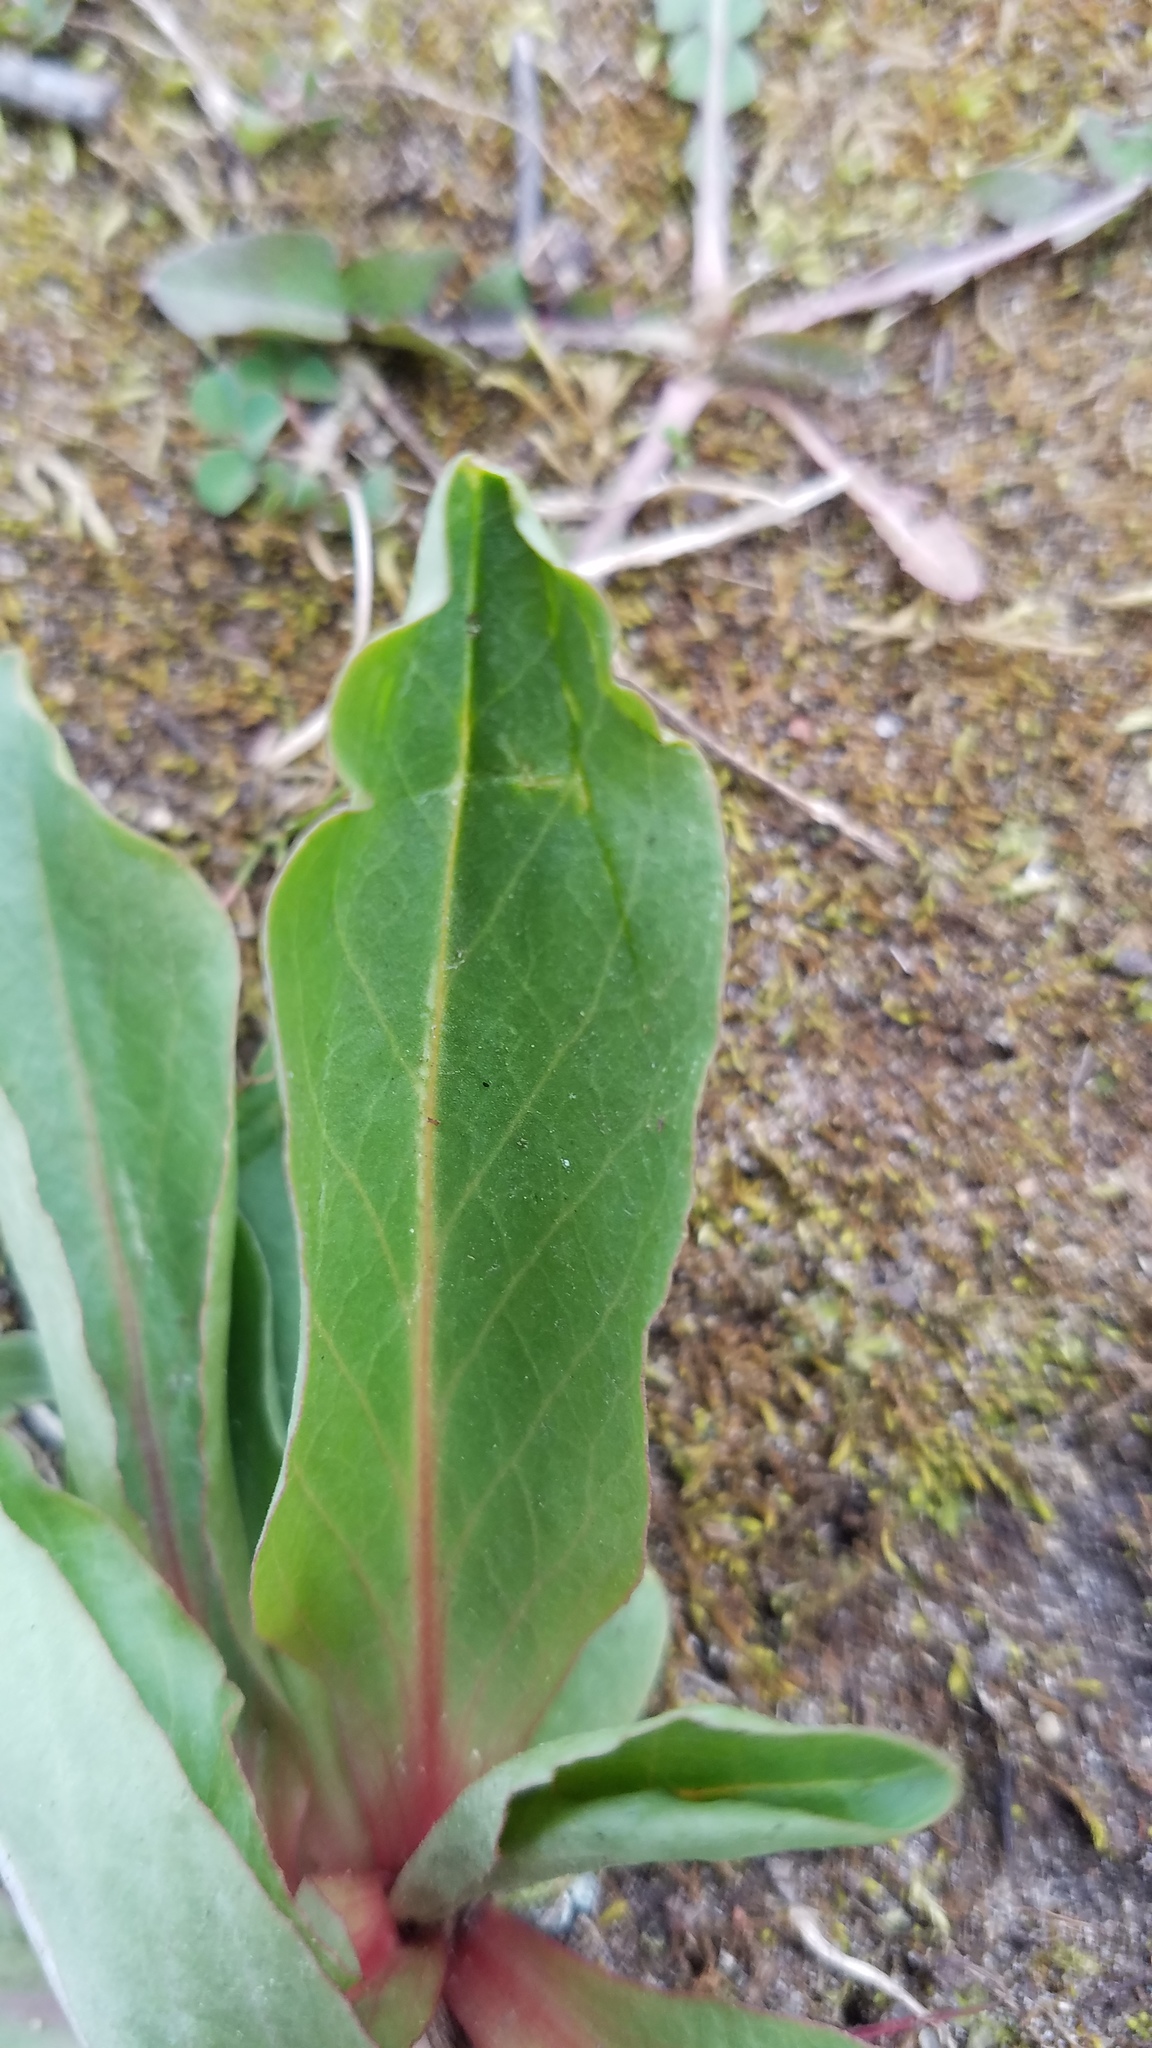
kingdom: Plantae
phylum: Tracheophyta
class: Magnoliopsida
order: Ericales
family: Primulaceae
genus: Dodecatheon
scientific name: Dodecatheon meadia
